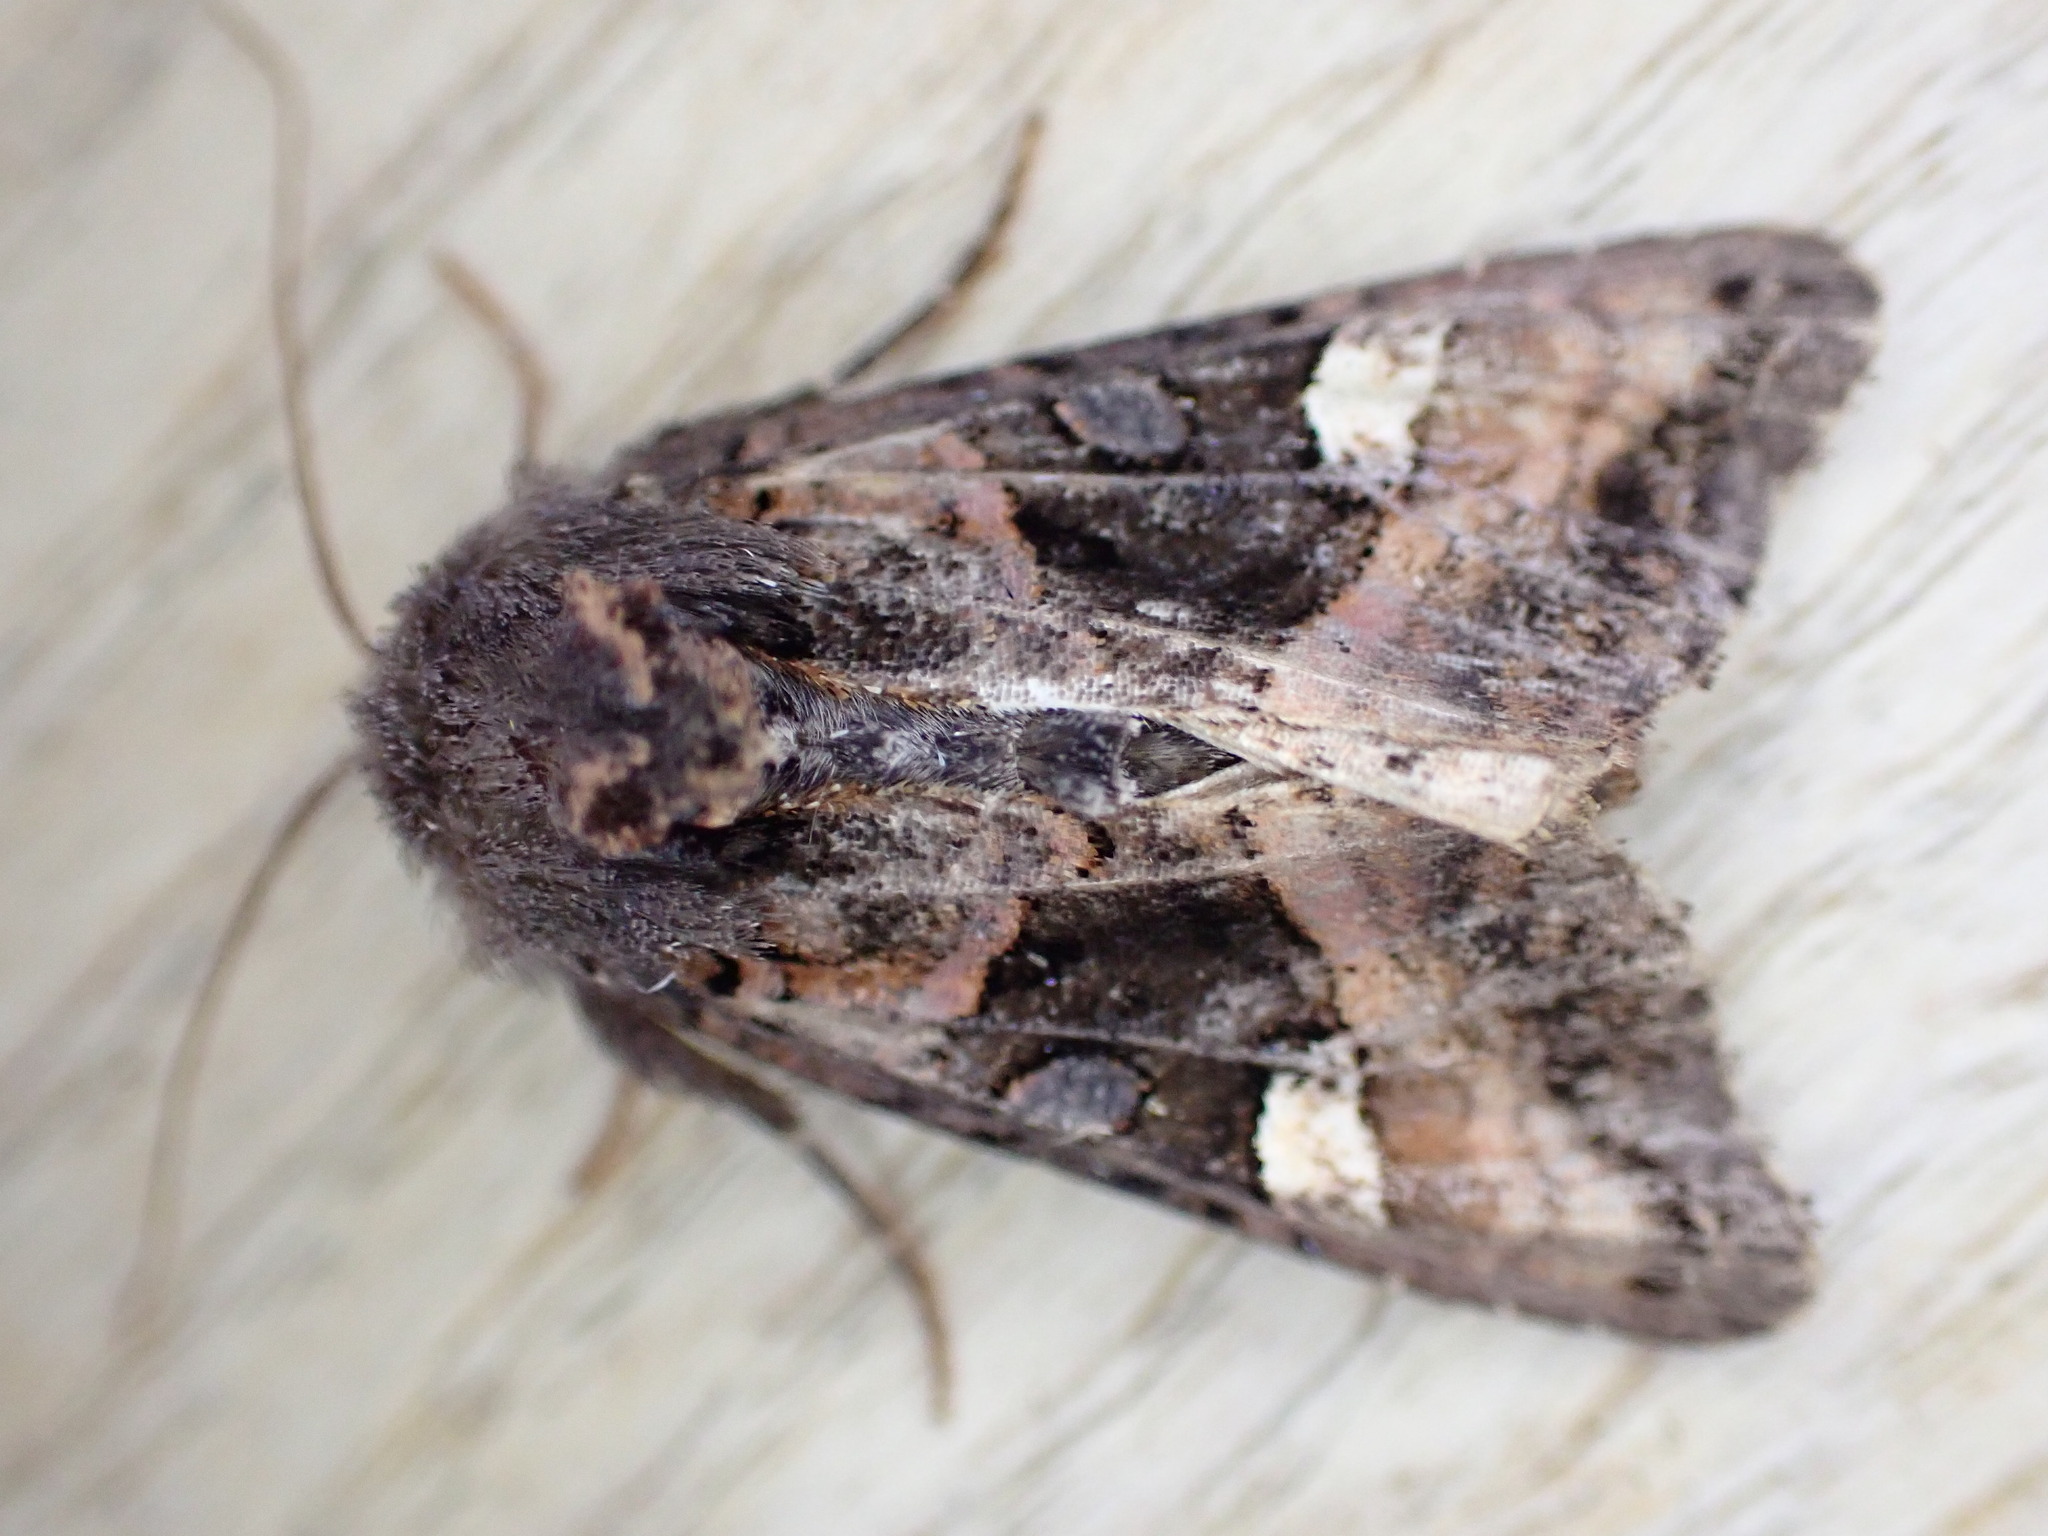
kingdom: Animalia
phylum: Arthropoda
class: Insecta
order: Lepidoptera
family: Noctuidae
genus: Euplexia
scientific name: Euplexia lucipara
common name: Small angle shades
